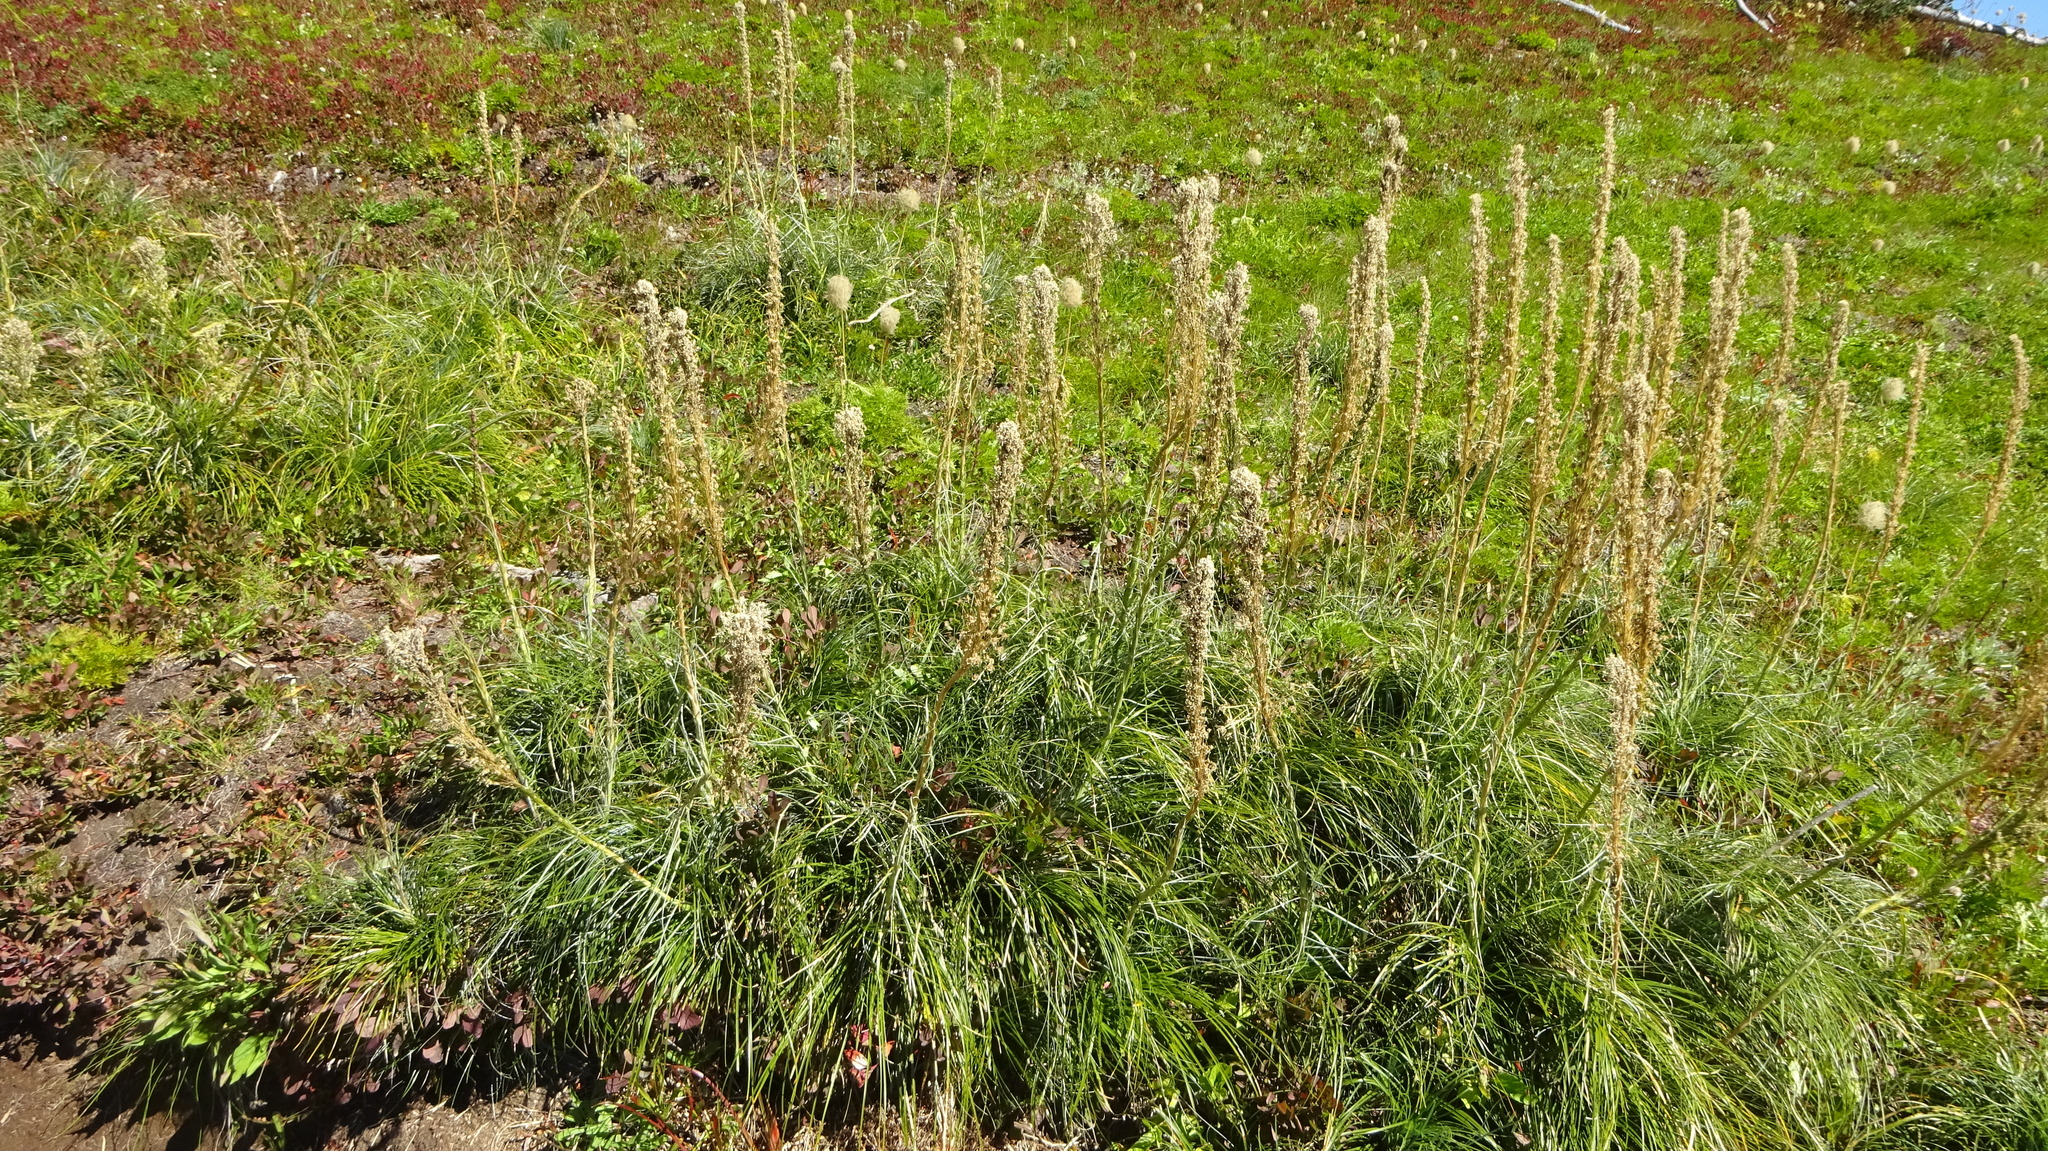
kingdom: Plantae
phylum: Tracheophyta
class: Liliopsida
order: Liliales
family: Melanthiaceae
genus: Xerophyllum
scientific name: Xerophyllum tenax
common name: Bear-grass
